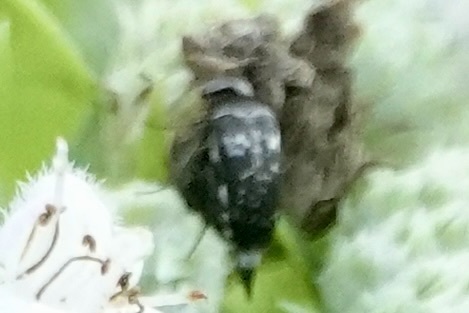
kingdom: Animalia
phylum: Arthropoda
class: Insecta
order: Coleoptera
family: Mordellidae
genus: Mordella
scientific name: Mordella marginata
